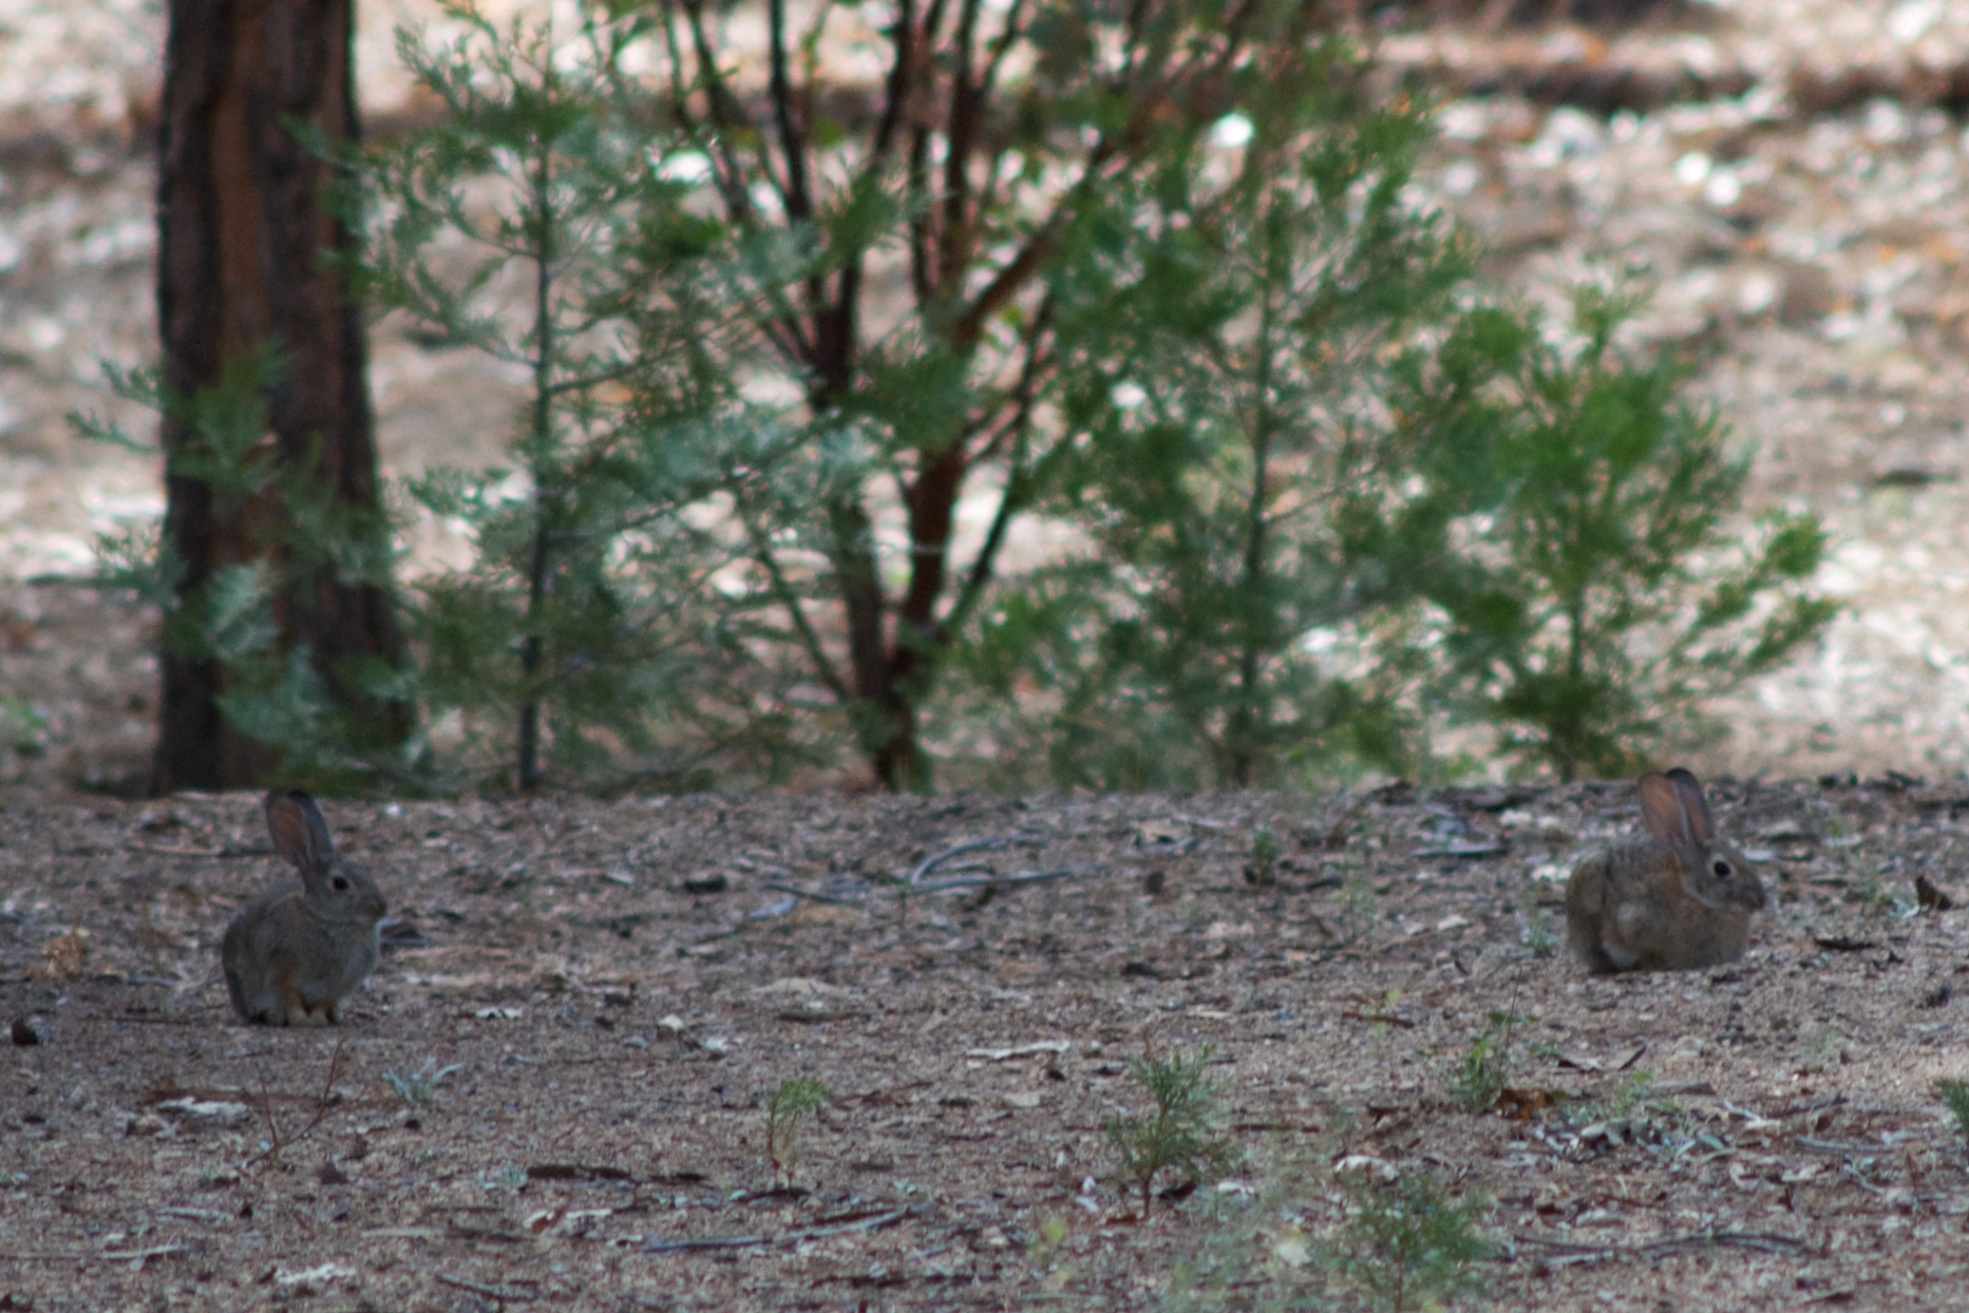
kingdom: Animalia
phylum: Chordata
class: Mammalia
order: Lagomorpha
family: Leporidae
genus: Sylvilagus
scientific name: Sylvilagus audubonii
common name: Desert cottontail
